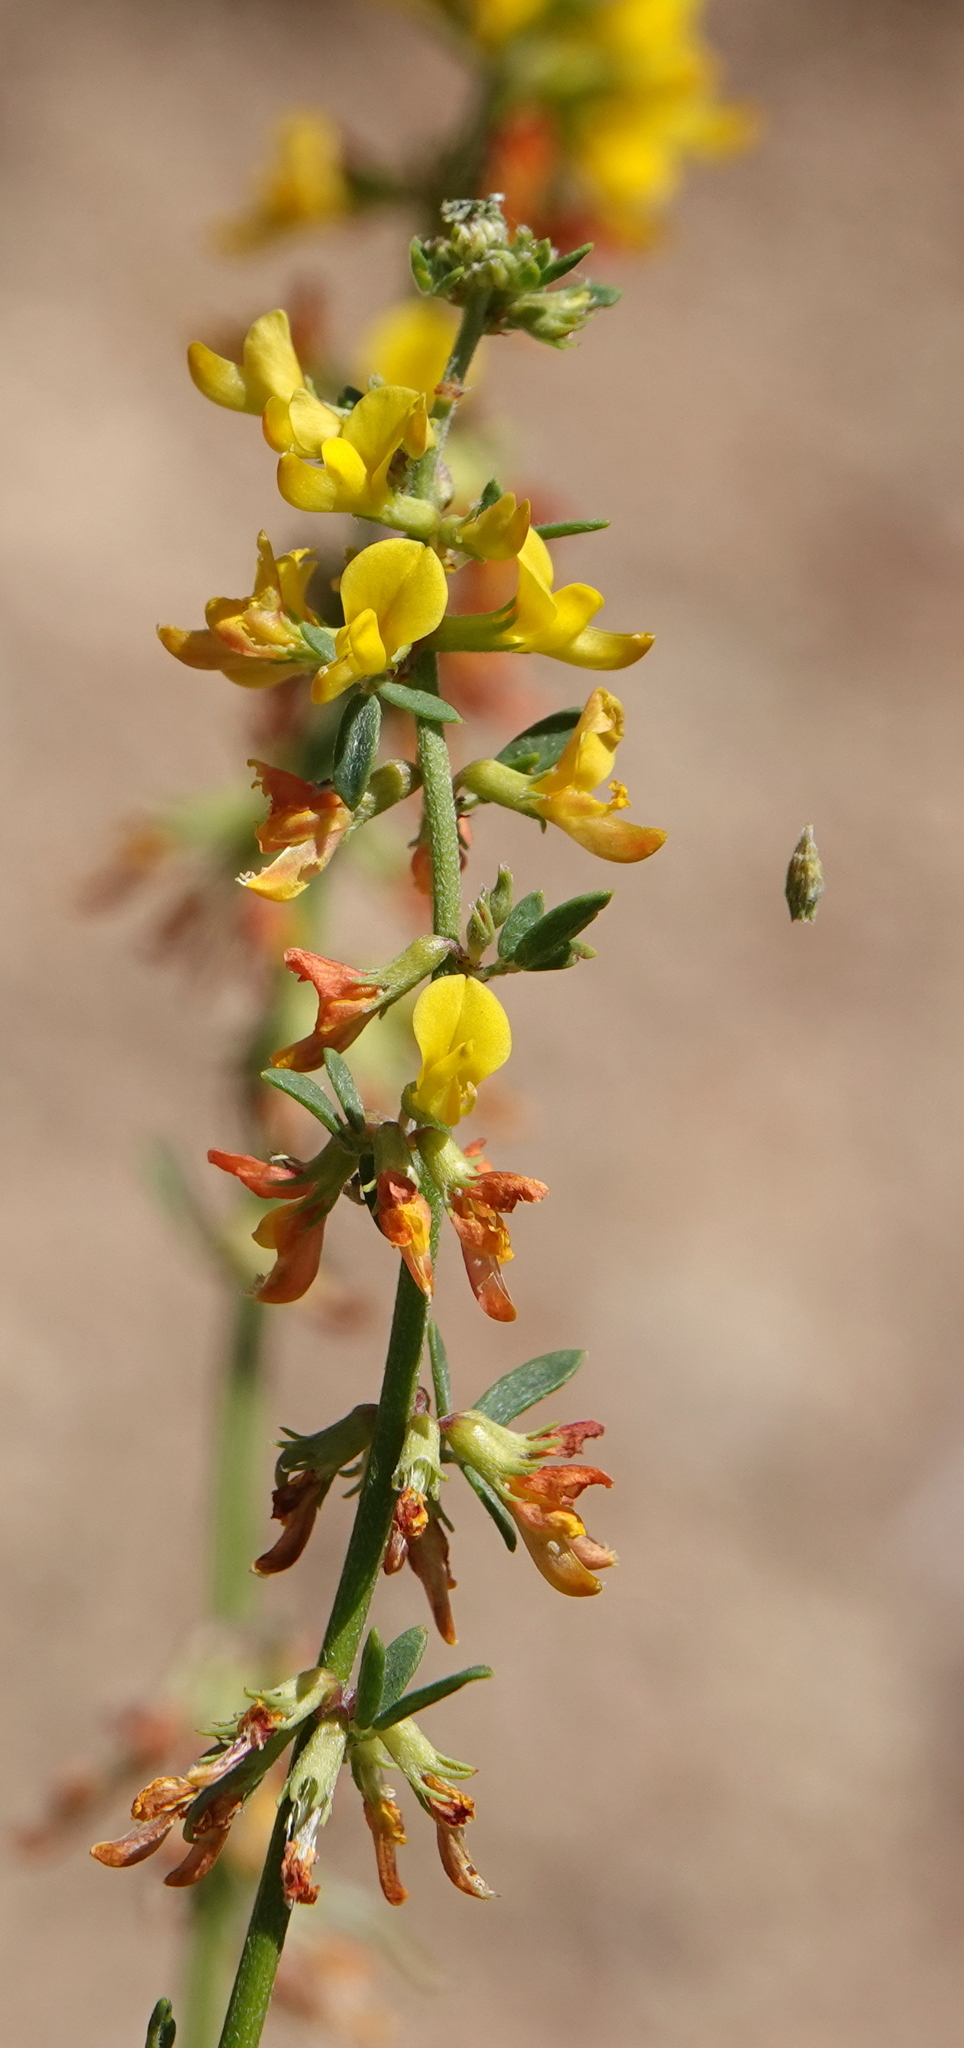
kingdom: Plantae
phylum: Tracheophyta
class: Magnoliopsida
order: Fabales
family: Fabaceae
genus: Acmispon
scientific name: Acmispon glaber
